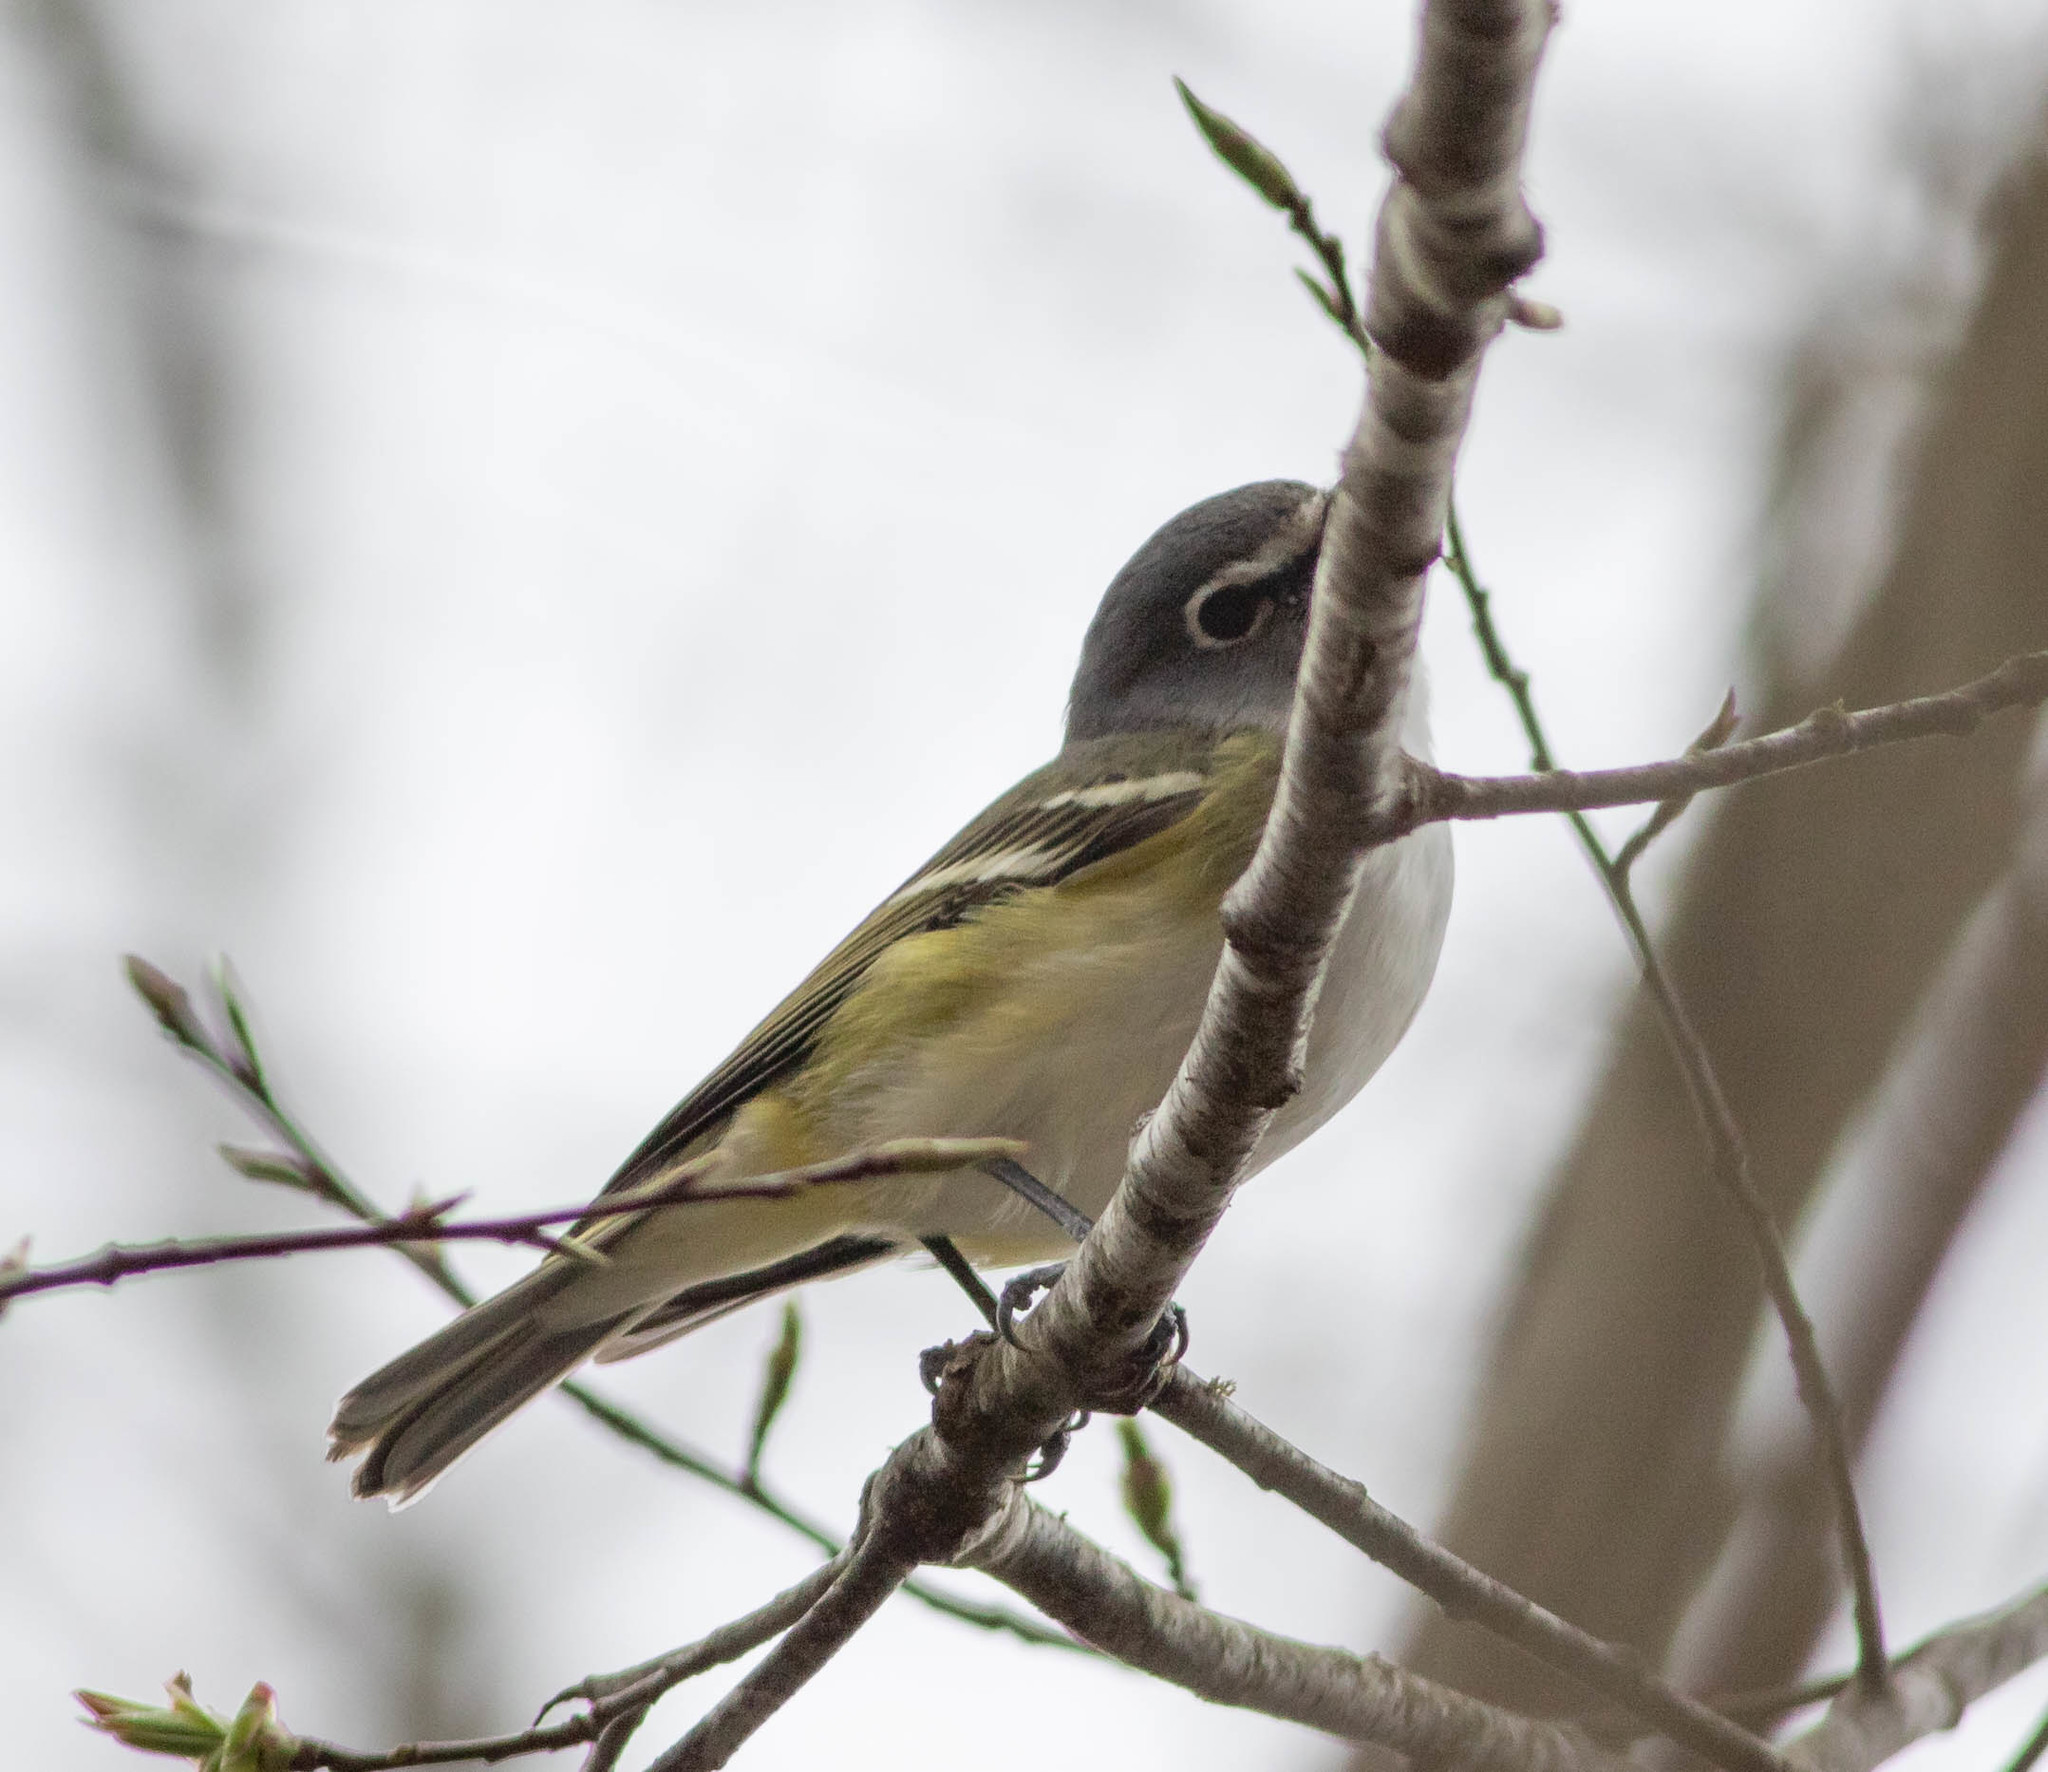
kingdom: Animalia
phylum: Chordata
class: Aves
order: Passeriformes
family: Vireonidae
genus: Vireo
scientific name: Vireo solitarius
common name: Blue-headed vireo
